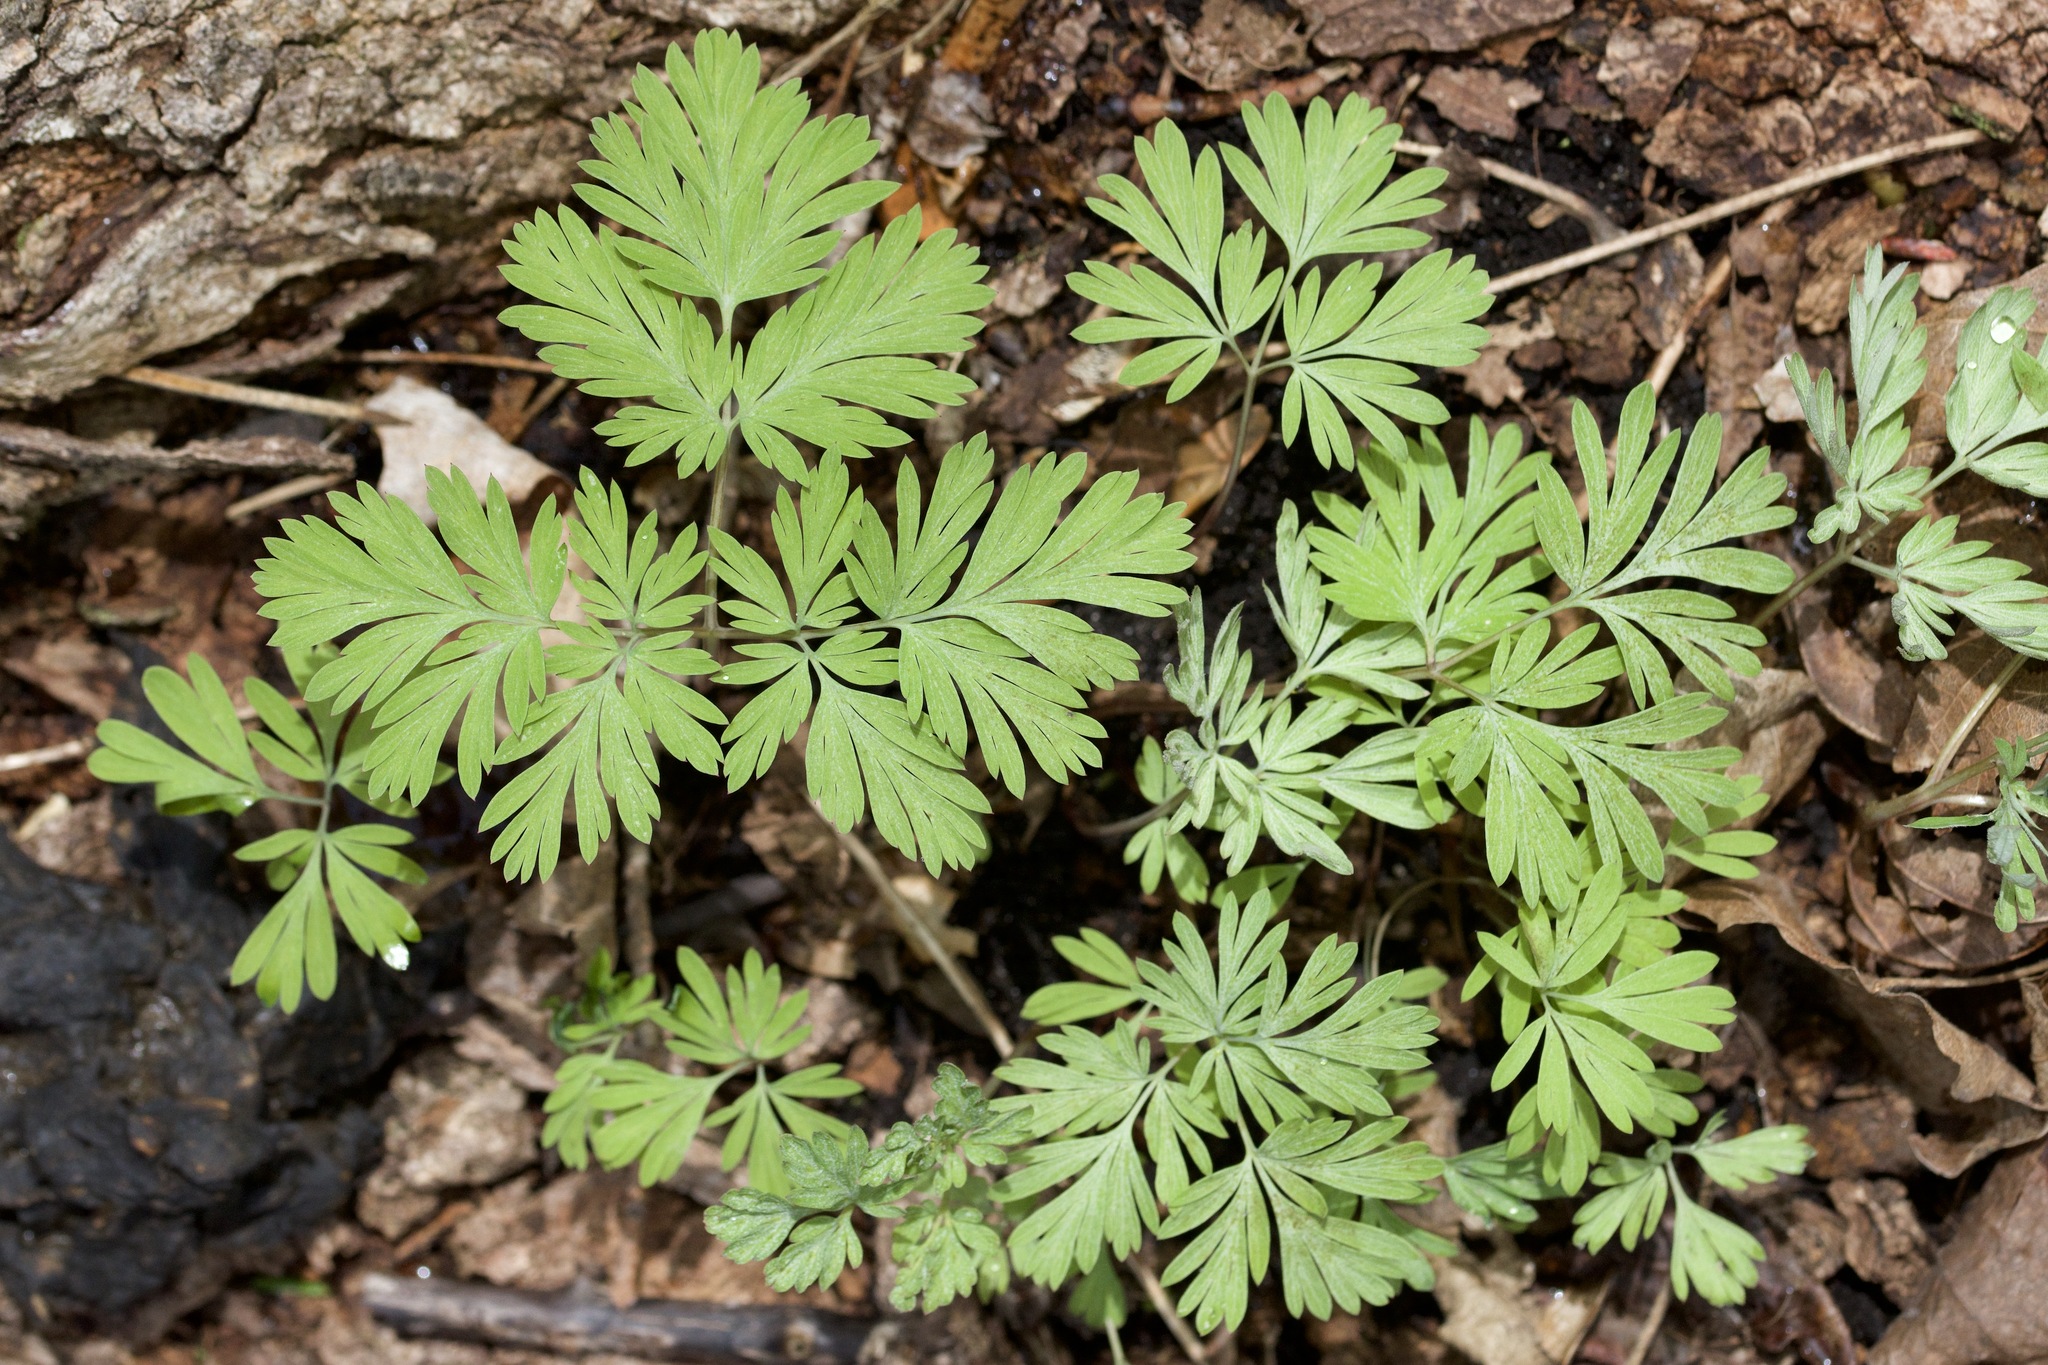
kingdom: Plantae
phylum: Tracheophyta
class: Magnoliopsida
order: Ranunculales
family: Papaveraceae
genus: Dicentra
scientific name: Dicentra cucullaria
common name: Dutchman's breeches
